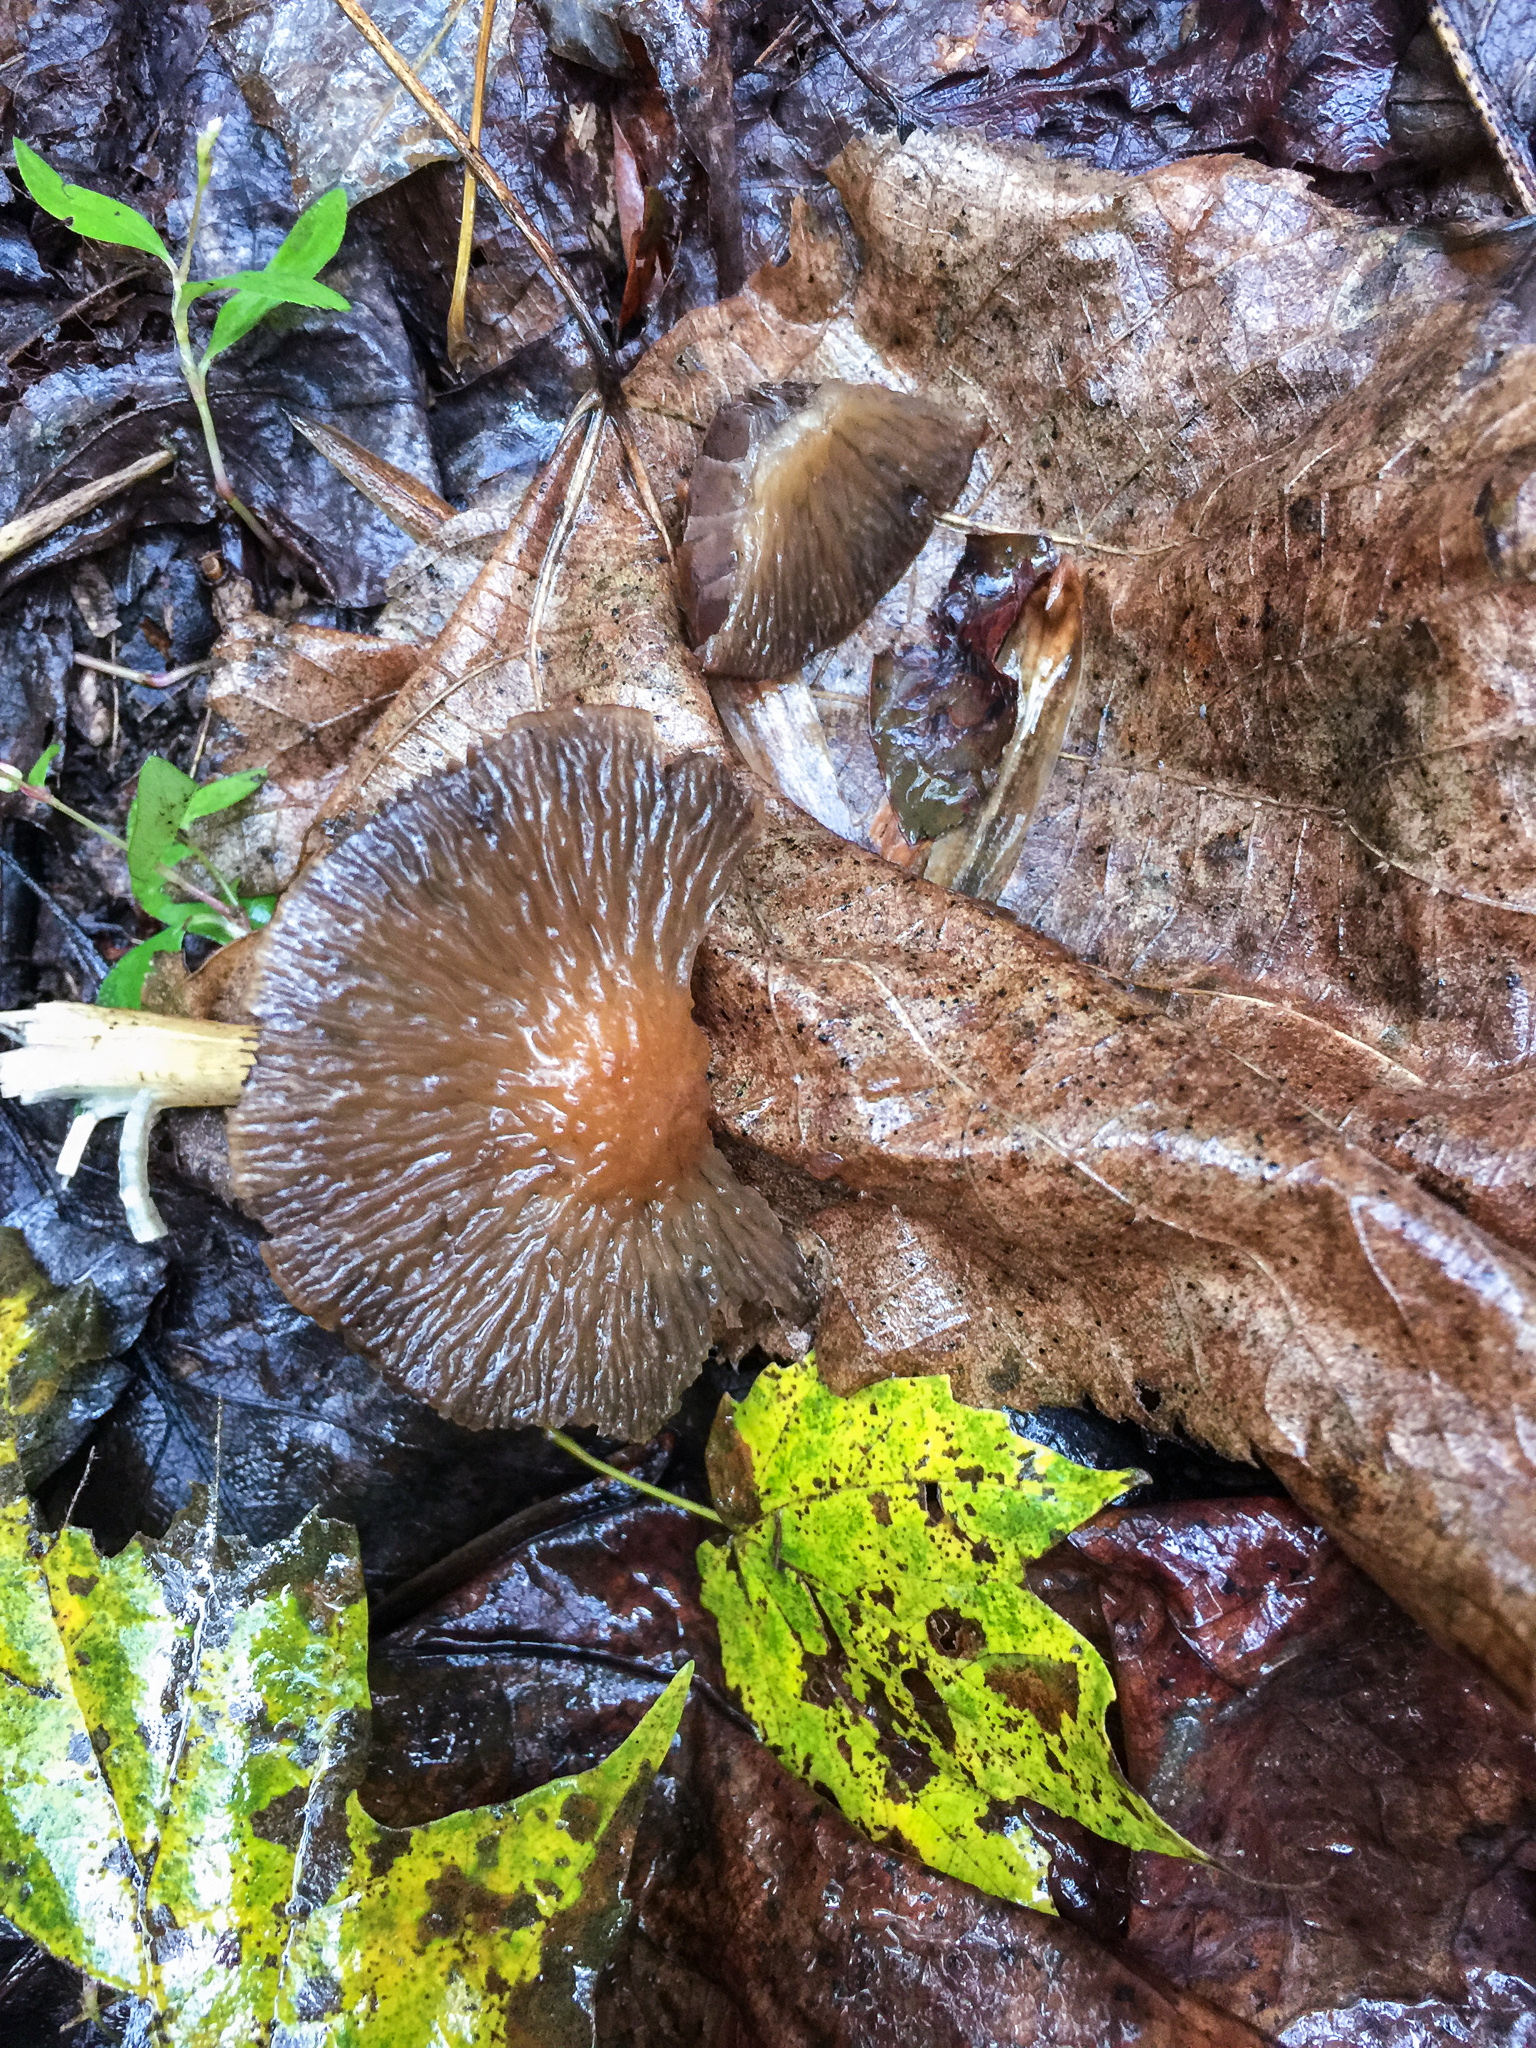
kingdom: Fungi
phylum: Basidiomycota
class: Agaricomycetes
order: Agaricales
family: Psathyrellaceae
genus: Typhrasa
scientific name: Typhrasa gossypina
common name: Wrinkled psathyrella
